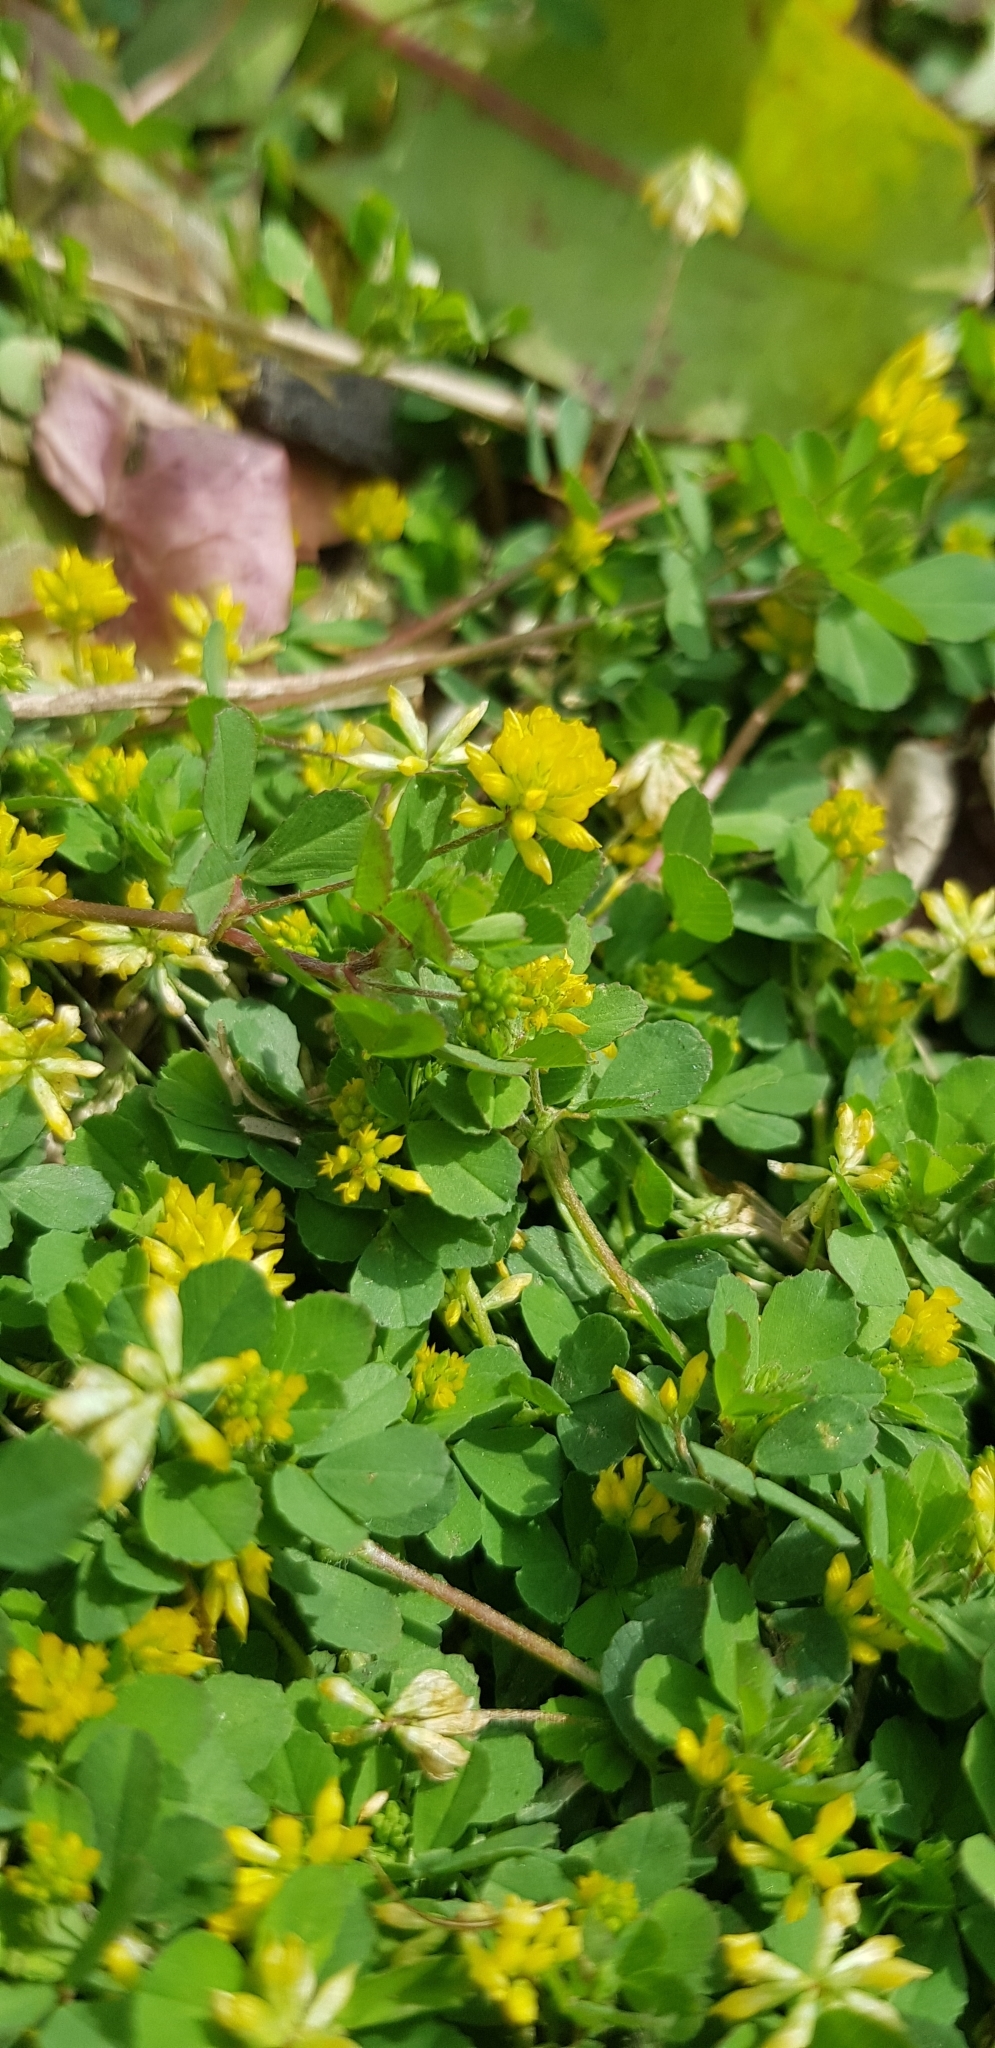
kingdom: Plantae
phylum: Tracheophyta
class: Magnoliopsida
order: Fabales
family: Fabaceae
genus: Trifolium
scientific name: Trifolium dubium
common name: Suckling clover
